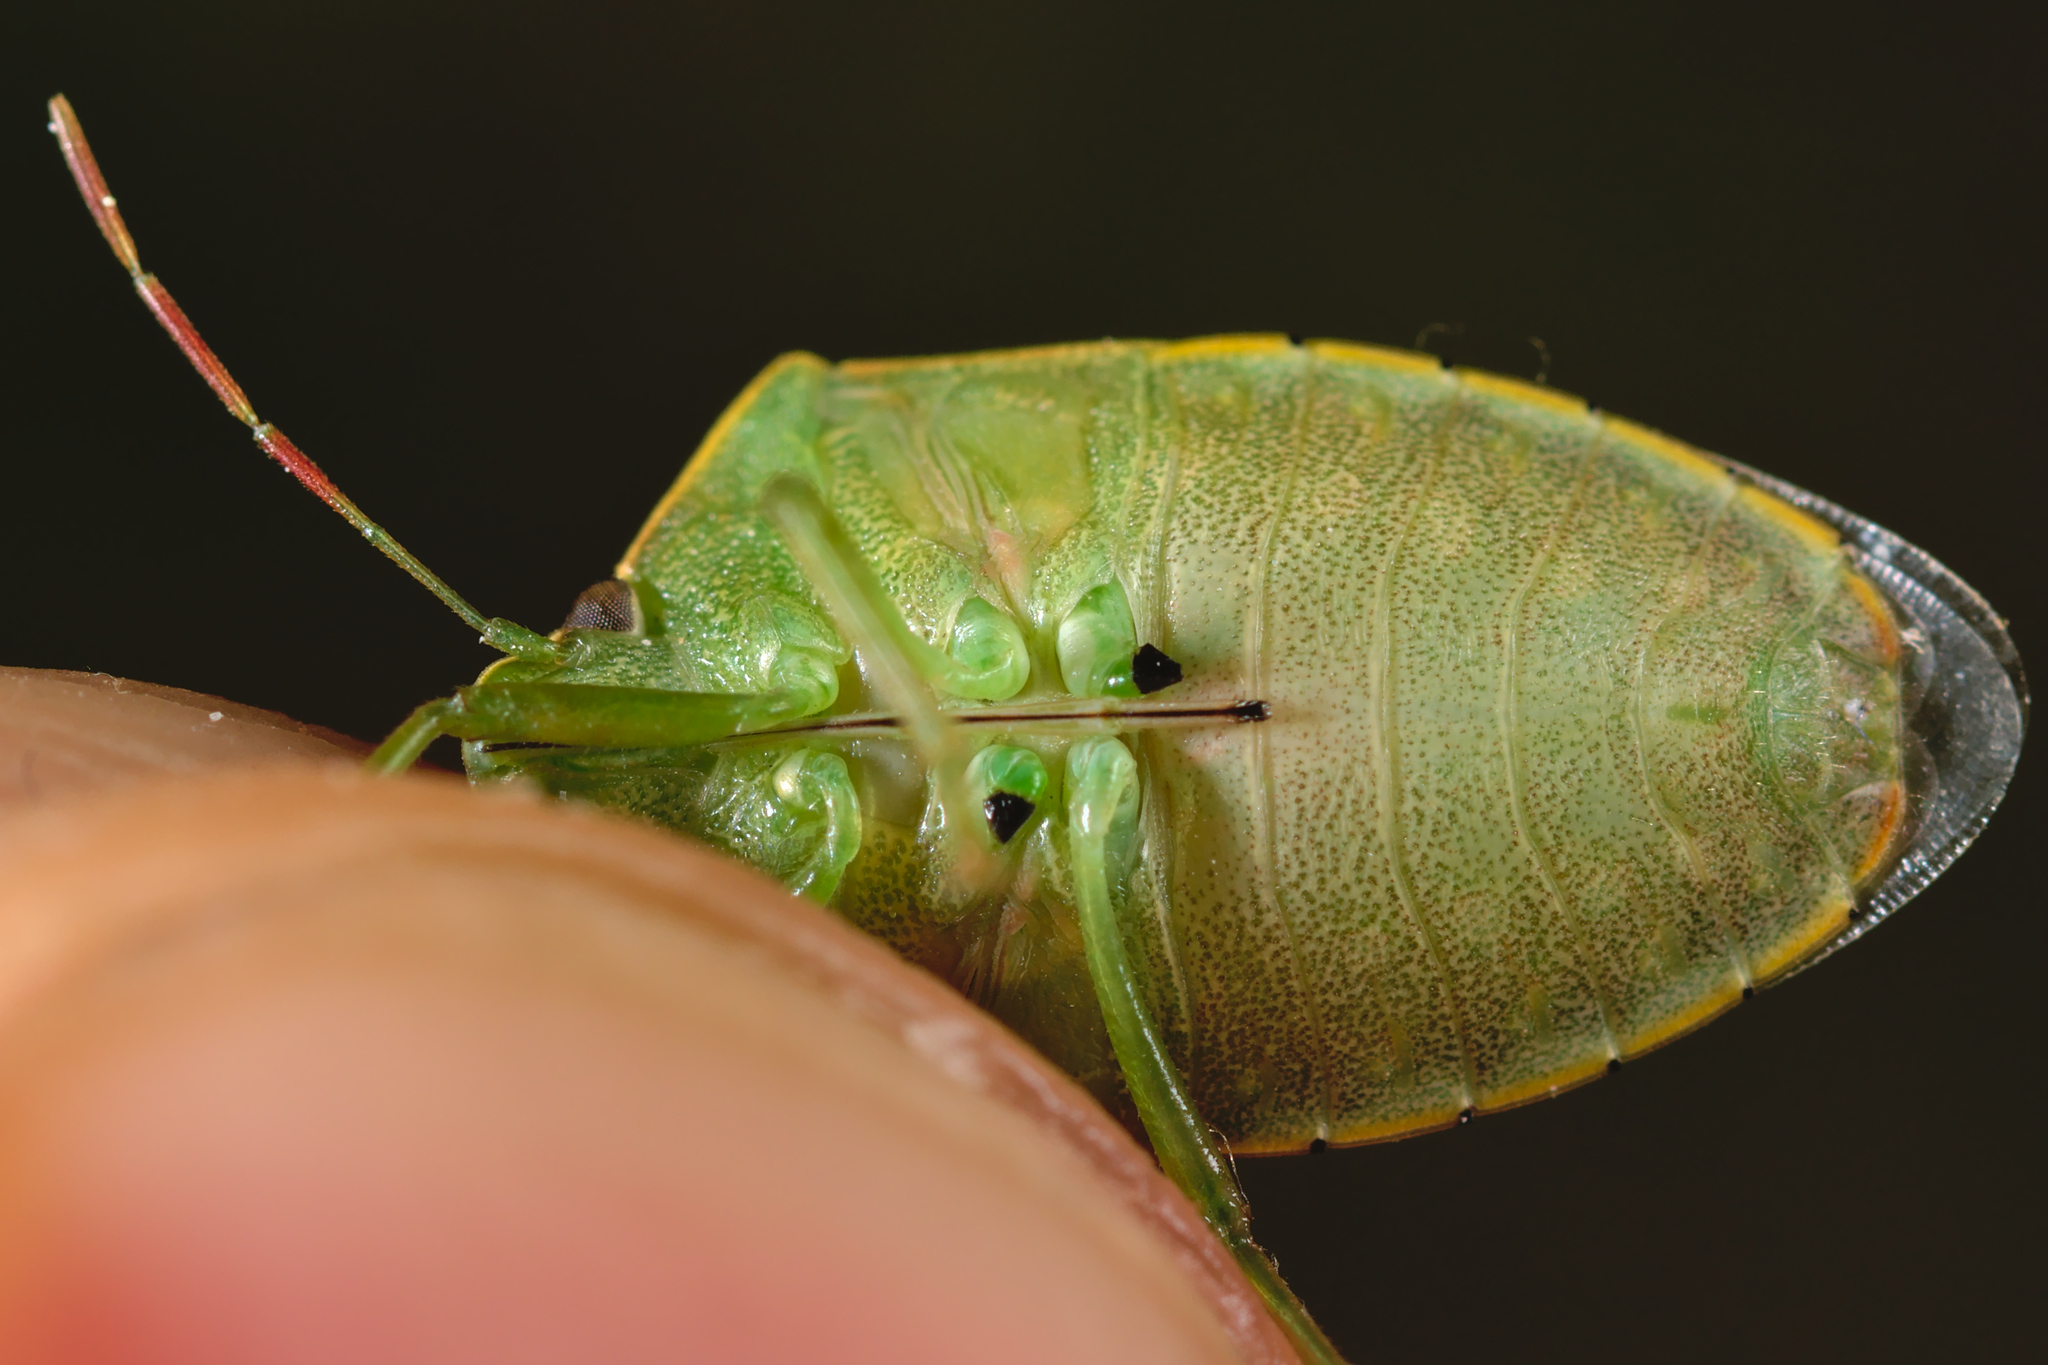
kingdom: Animalia
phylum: Arthropoda
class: Insecta
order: Hemiptera
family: Pentatomidae
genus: Acrosternum
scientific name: Acrosternum heegeri
